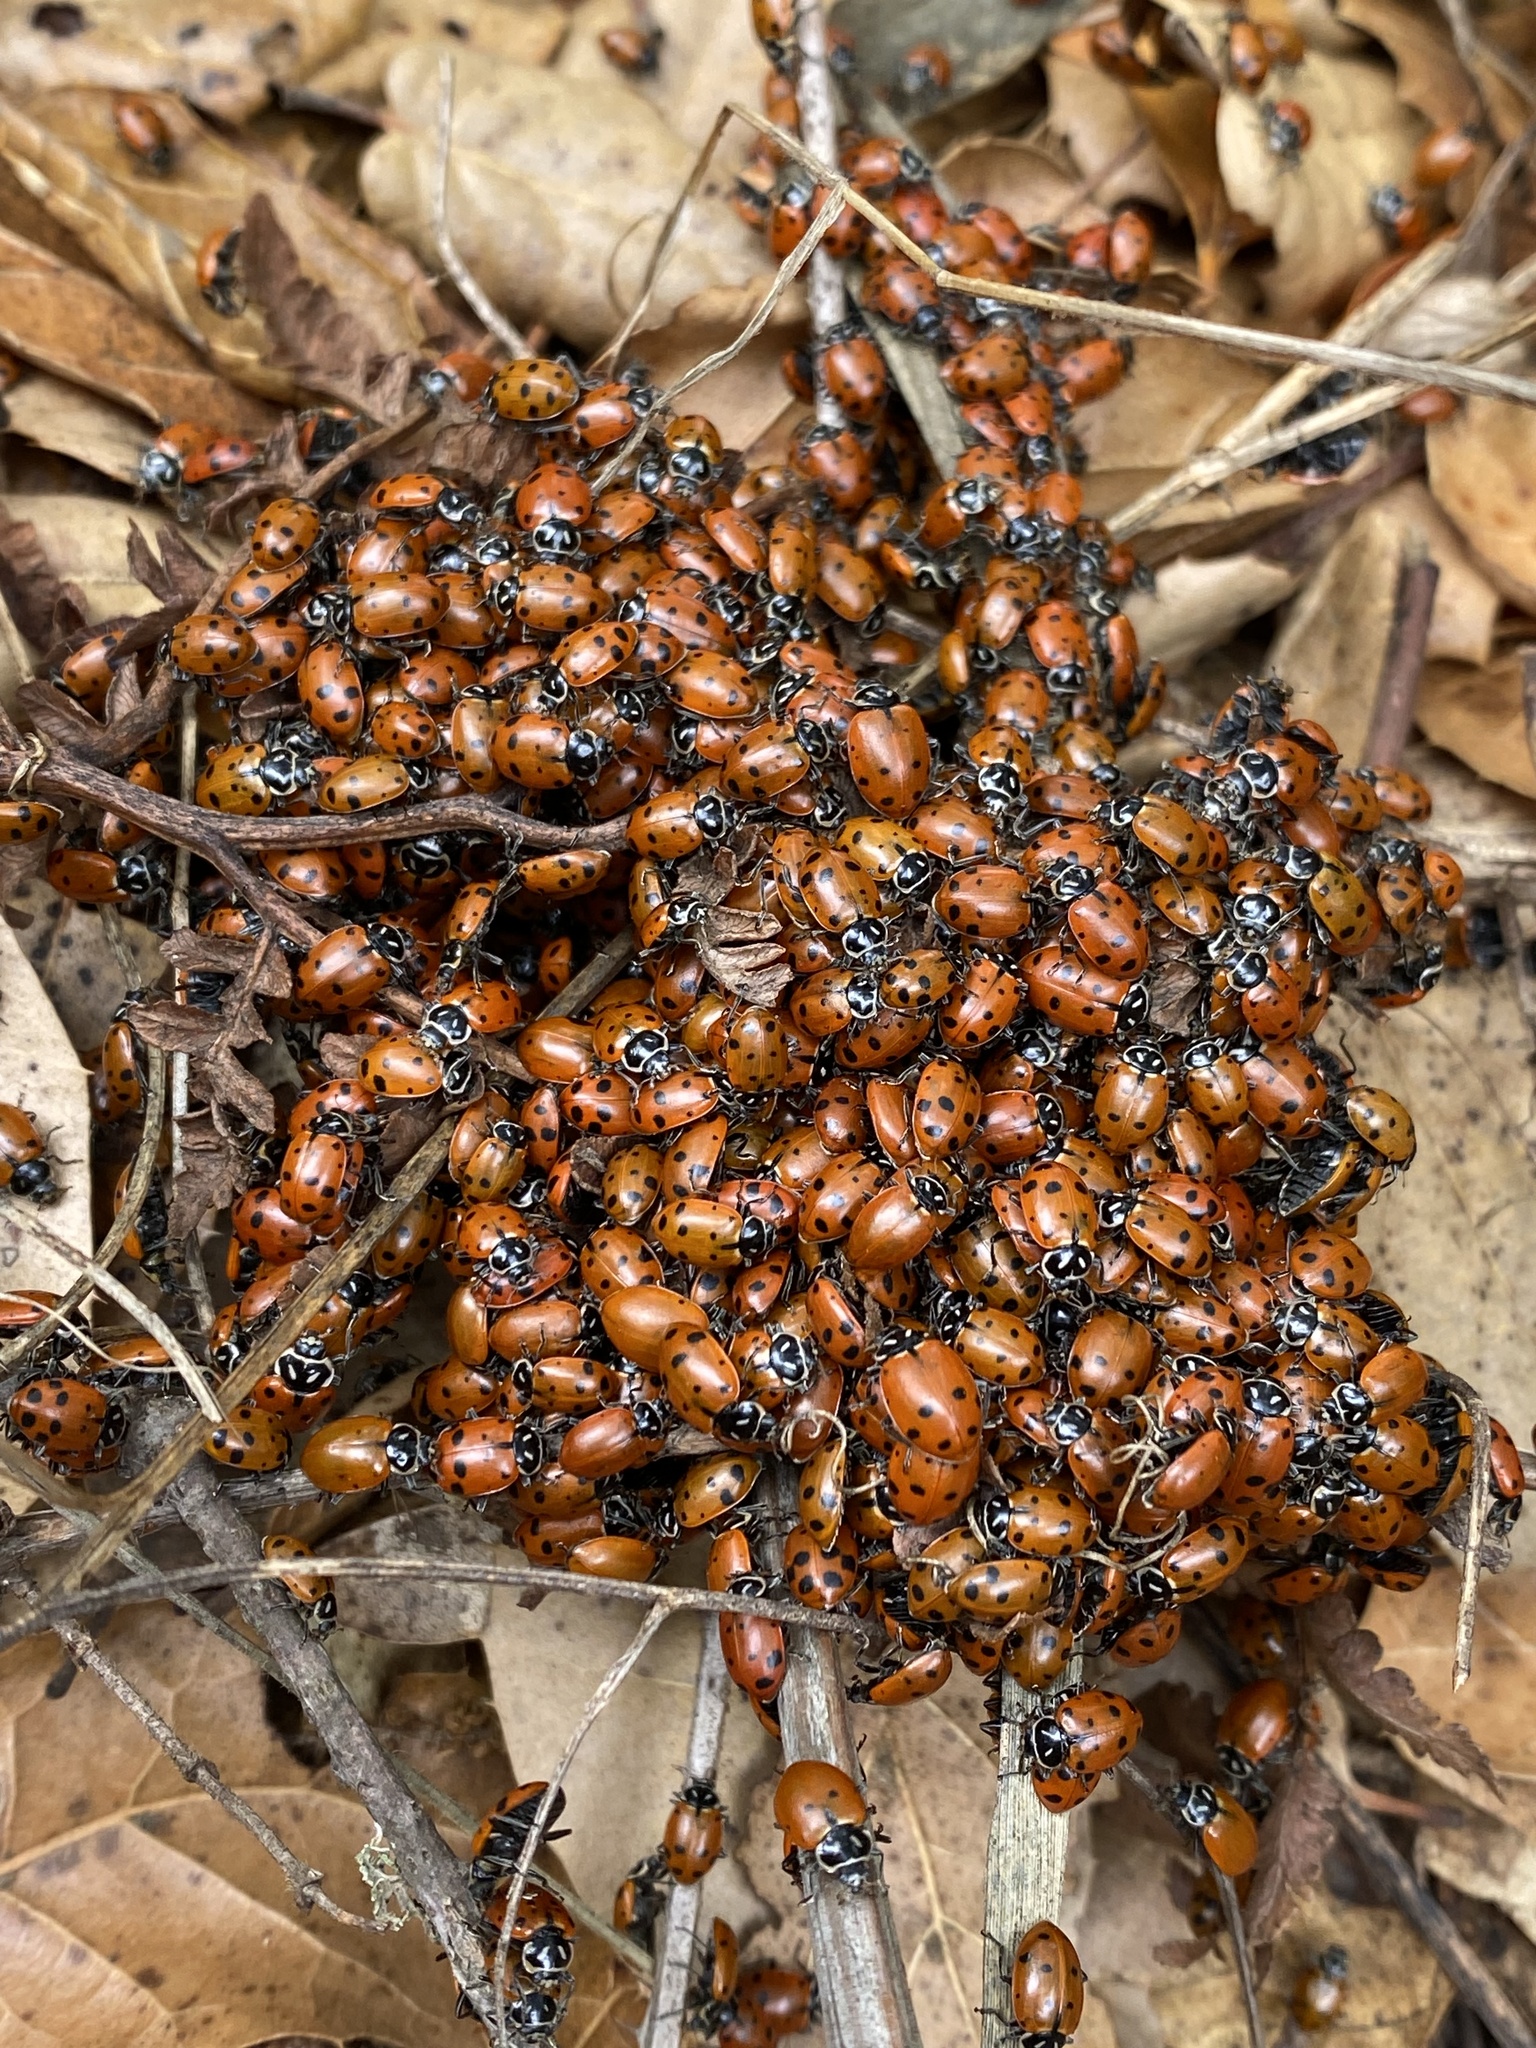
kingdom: Animalia
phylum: Arthropoda
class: Insecta
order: Coleoptera
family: Coccinellidae
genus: Hippodamia
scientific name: Hippodamia convergens
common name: Convergent lady beetle
